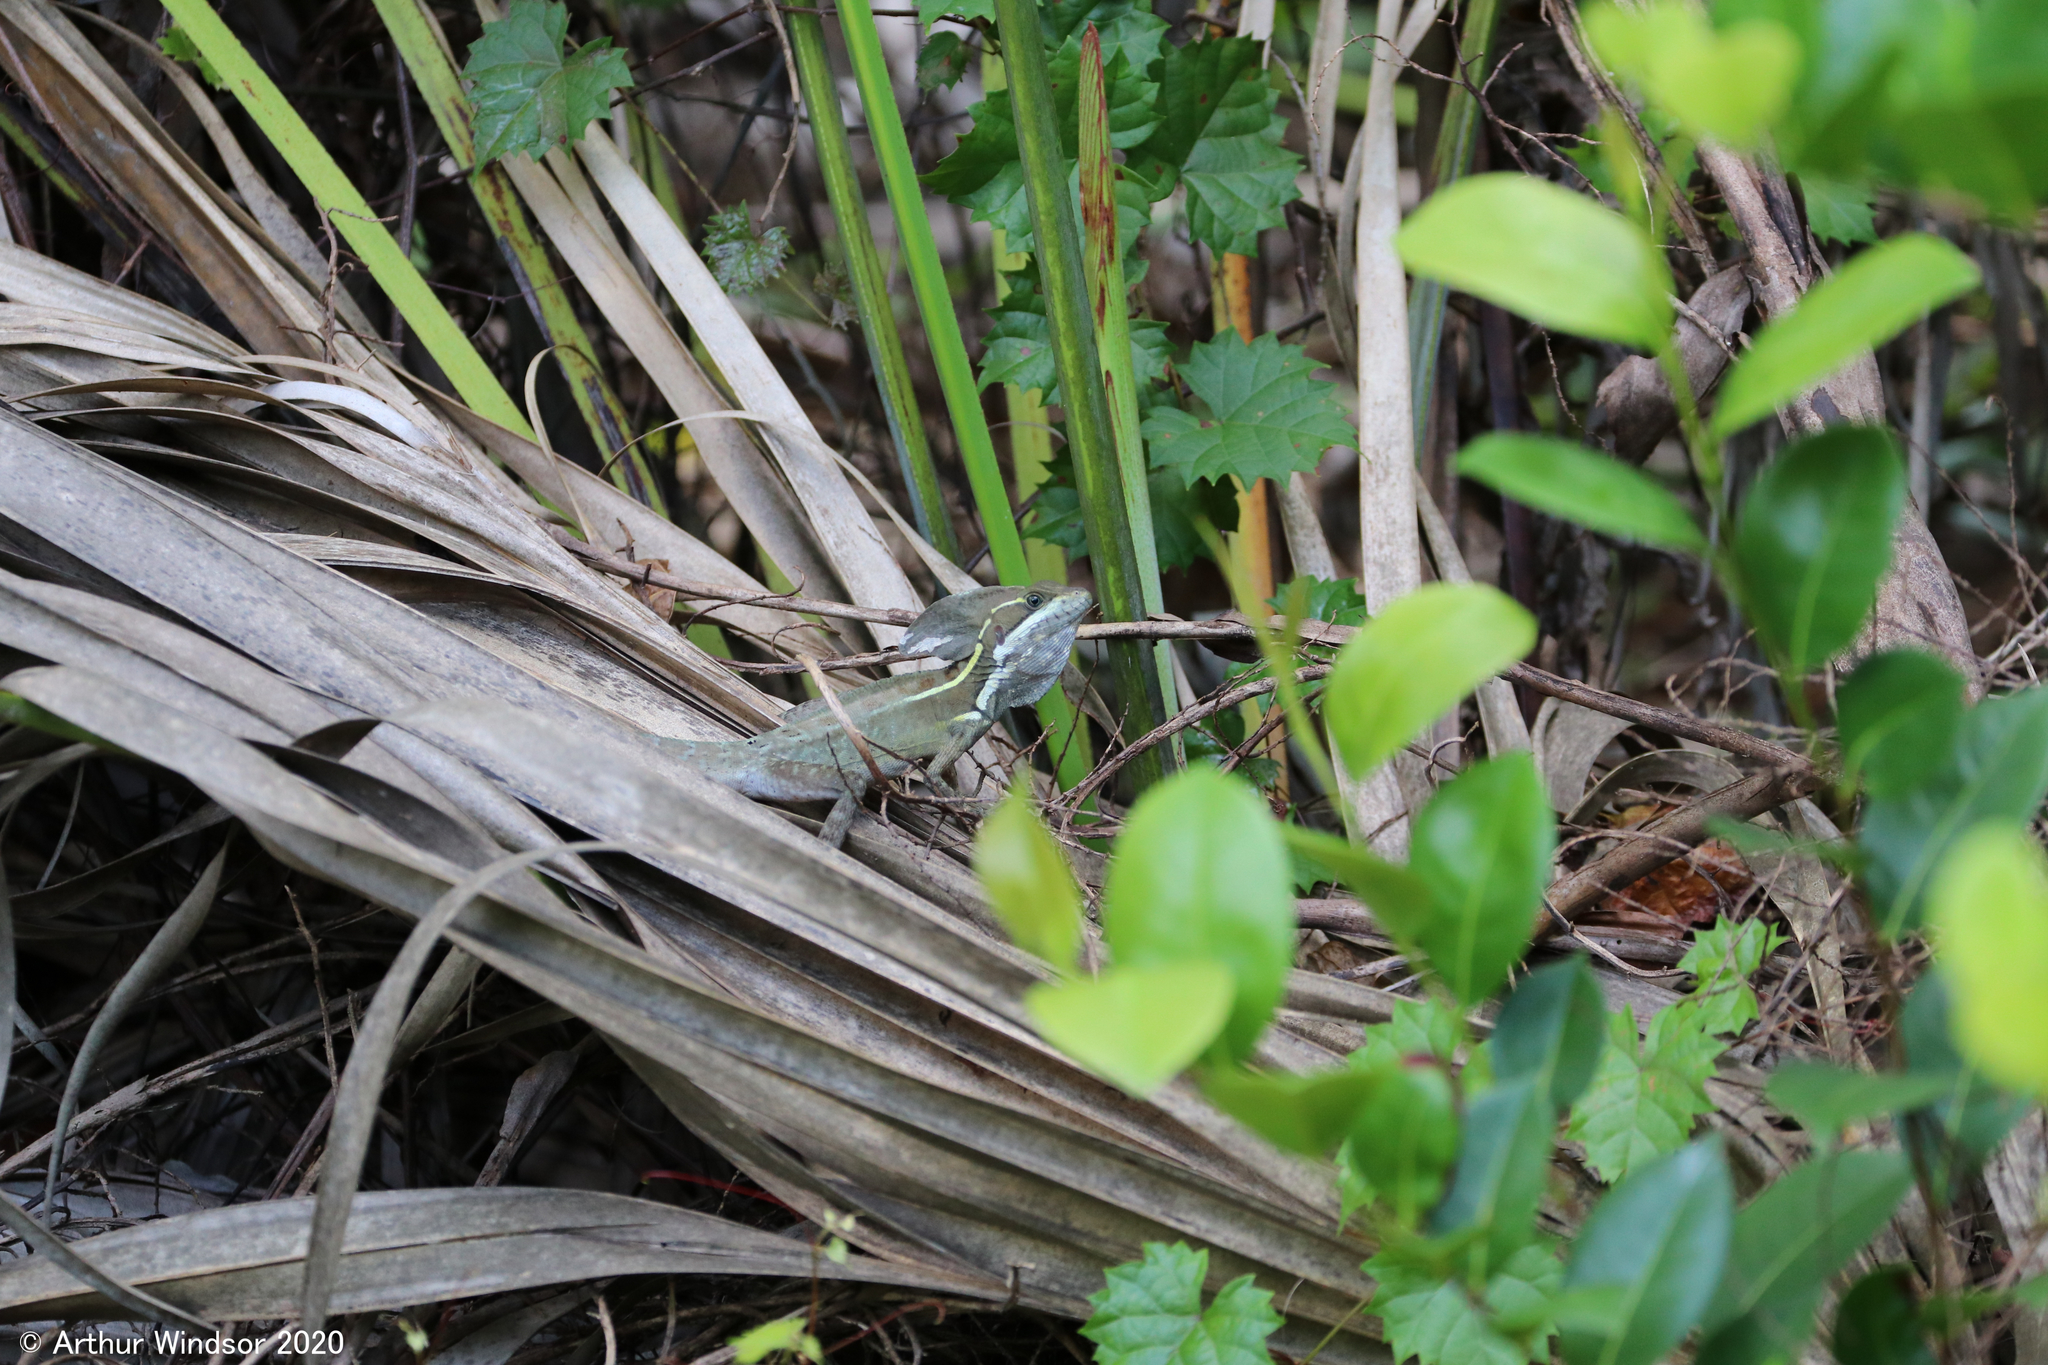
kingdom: Animalia
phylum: Chordata
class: Squamata
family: Corytophanidae
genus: Basiliscus
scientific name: Basiliscus vittatus
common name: Brown basilisk
